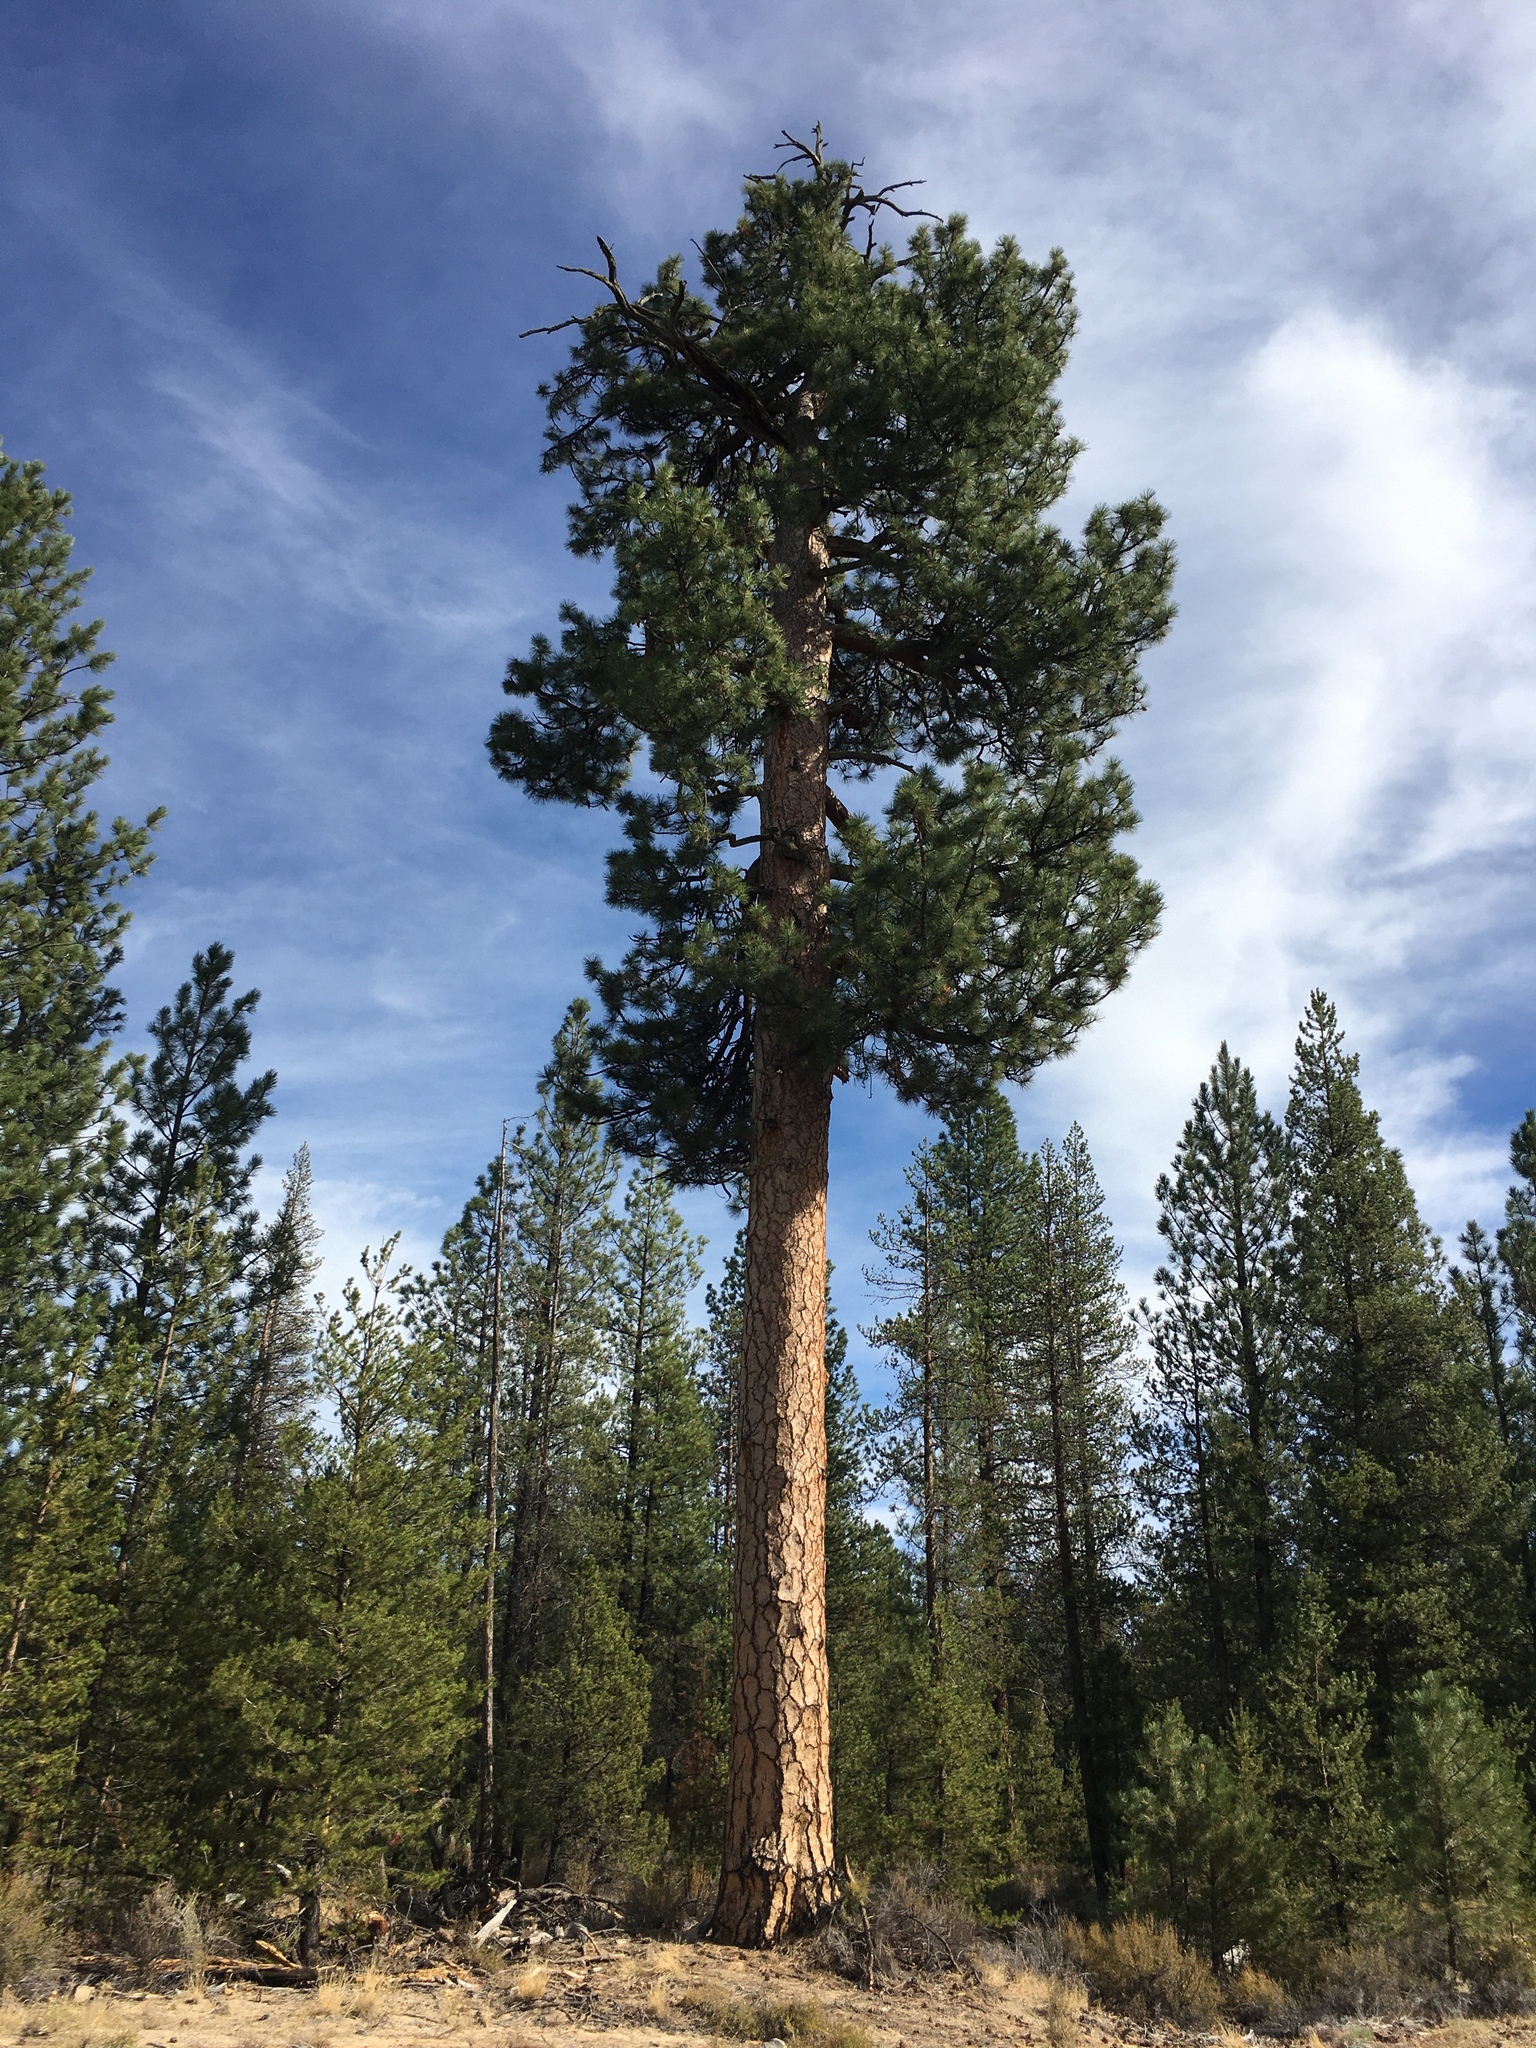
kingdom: Plantae
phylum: Tracheophyta
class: Pinopsida
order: Pinales
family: Pinaceae
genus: Pinus
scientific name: Pinus ponderosa
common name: Western yellow-pine
